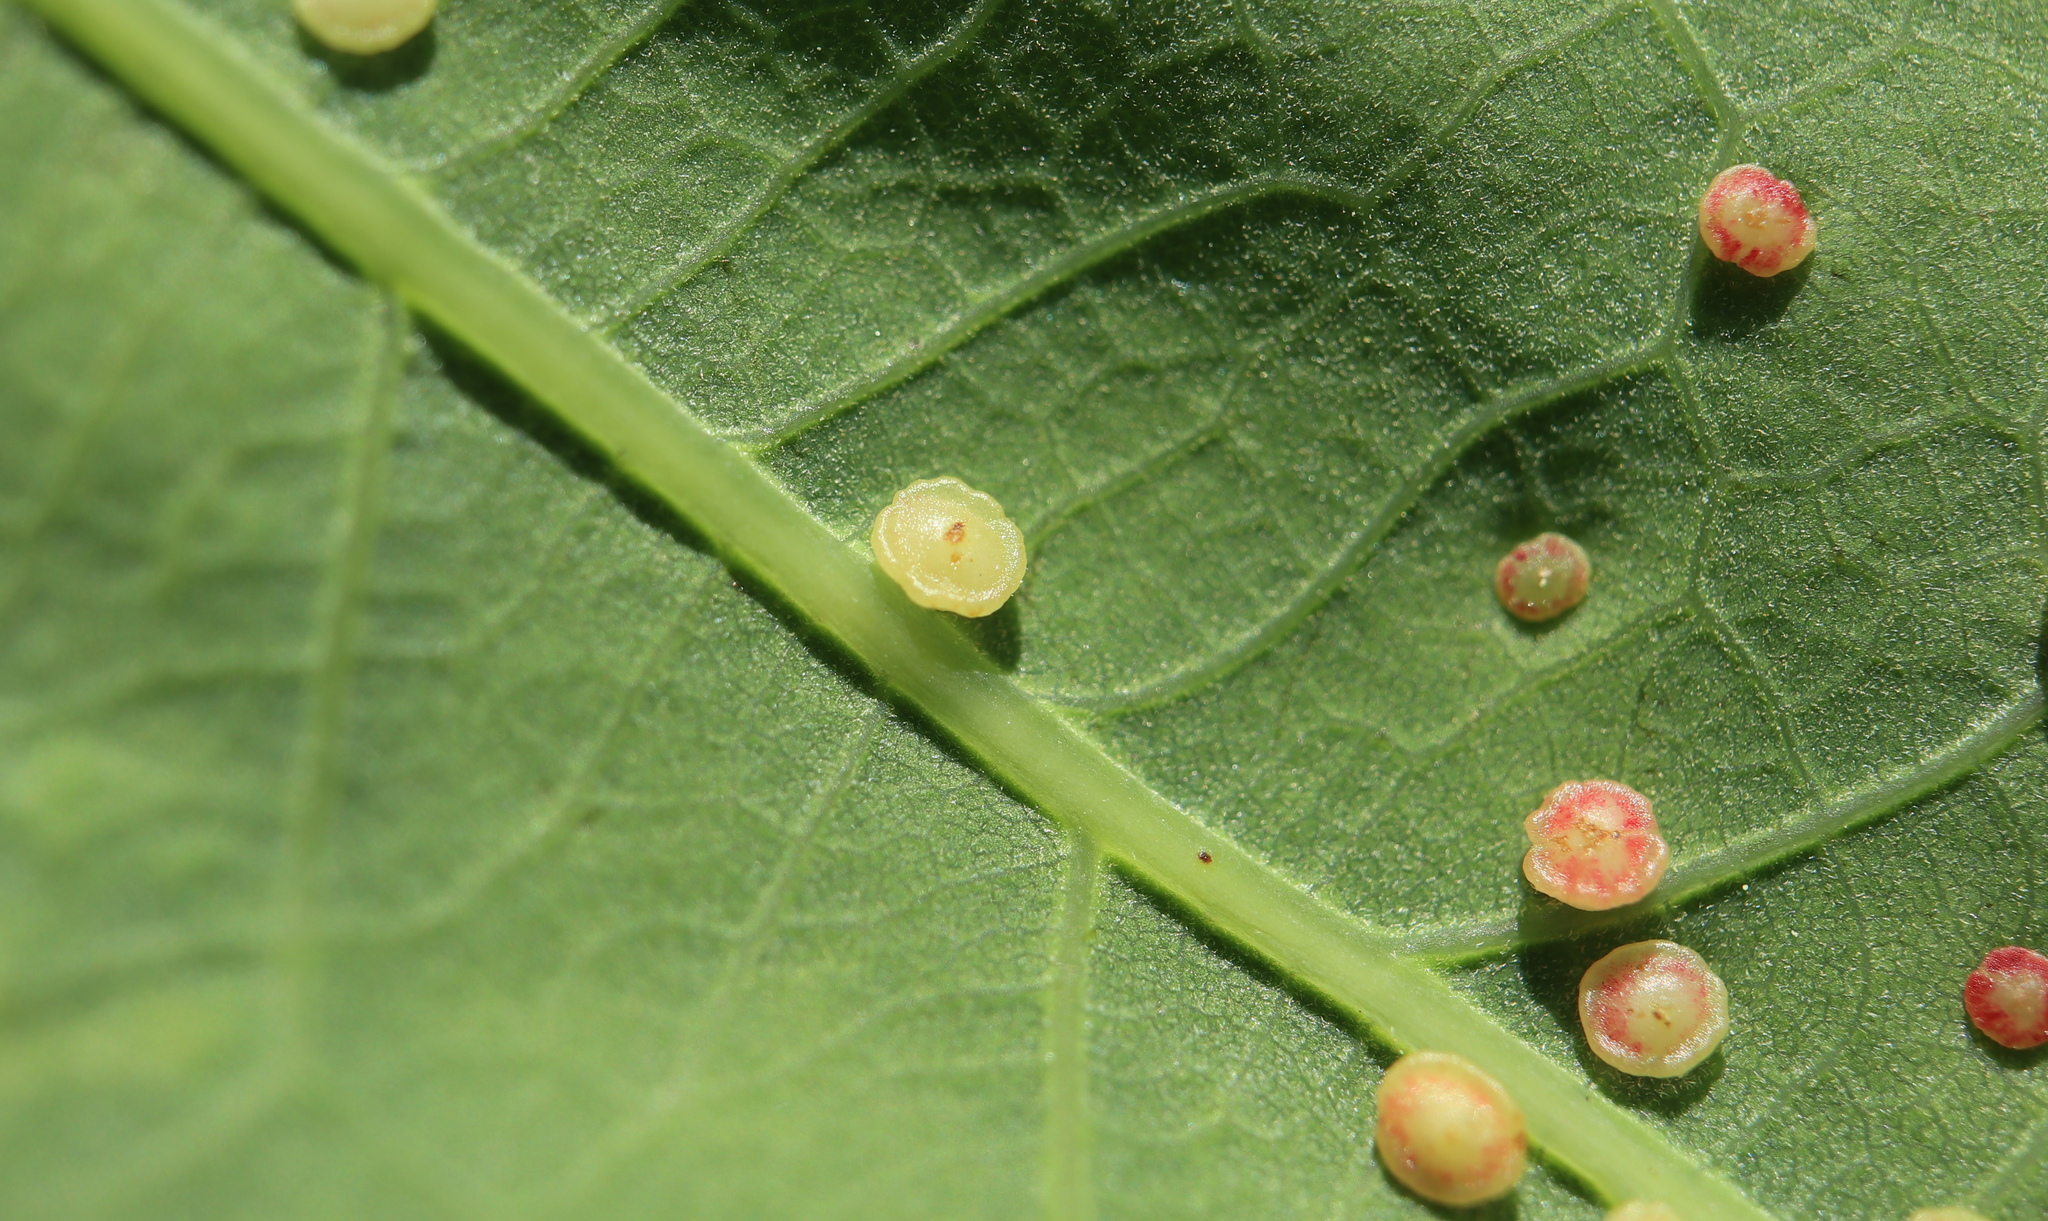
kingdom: Animalia
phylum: Arthropoda
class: Insecta
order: Hymenoptera
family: Cynipidae
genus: Neuroterus
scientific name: Neuroterus
